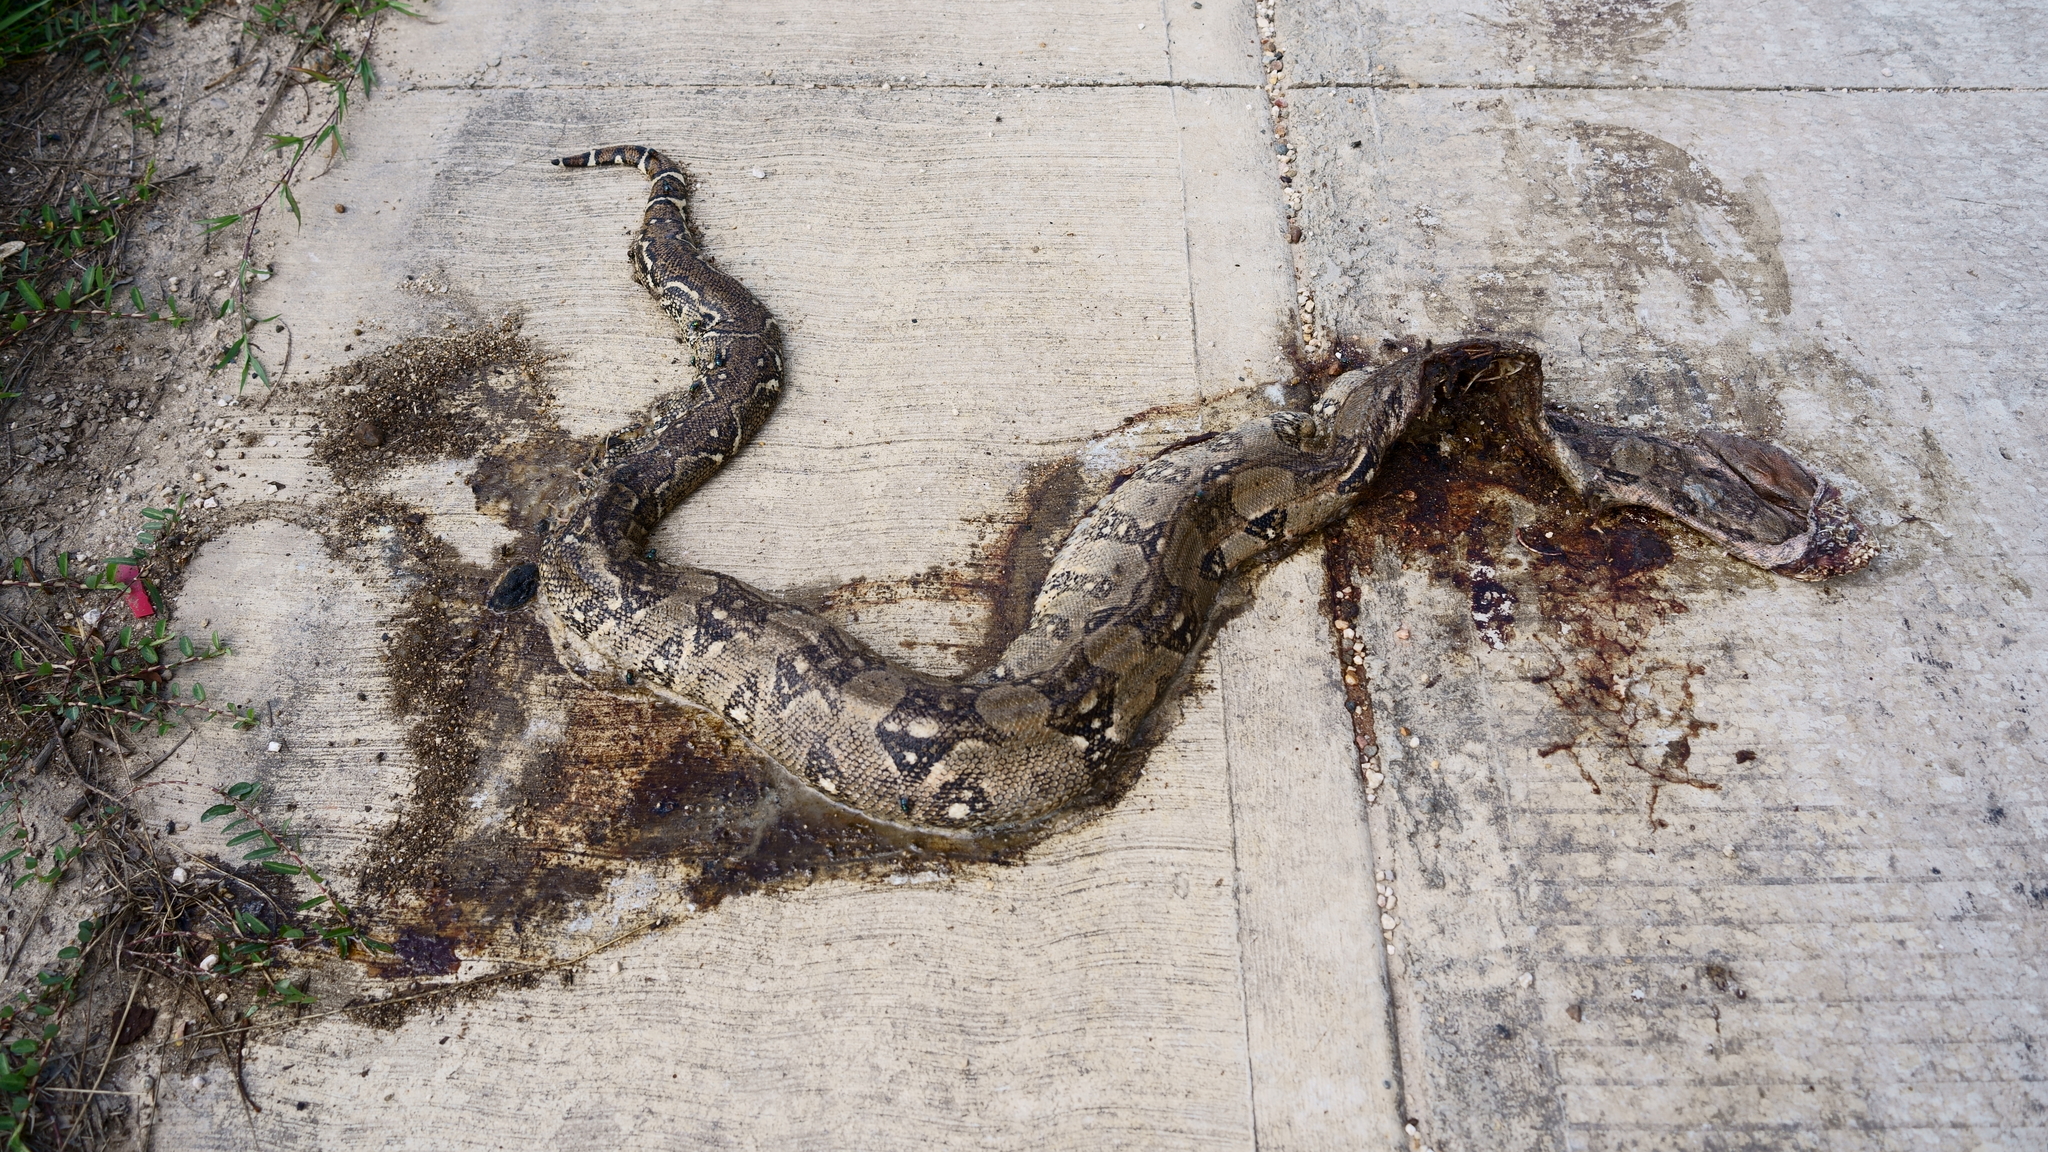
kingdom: Animalia
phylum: Chordata
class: Squamata
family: Boidae
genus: Boa
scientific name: Boa imperator
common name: Central american boa
